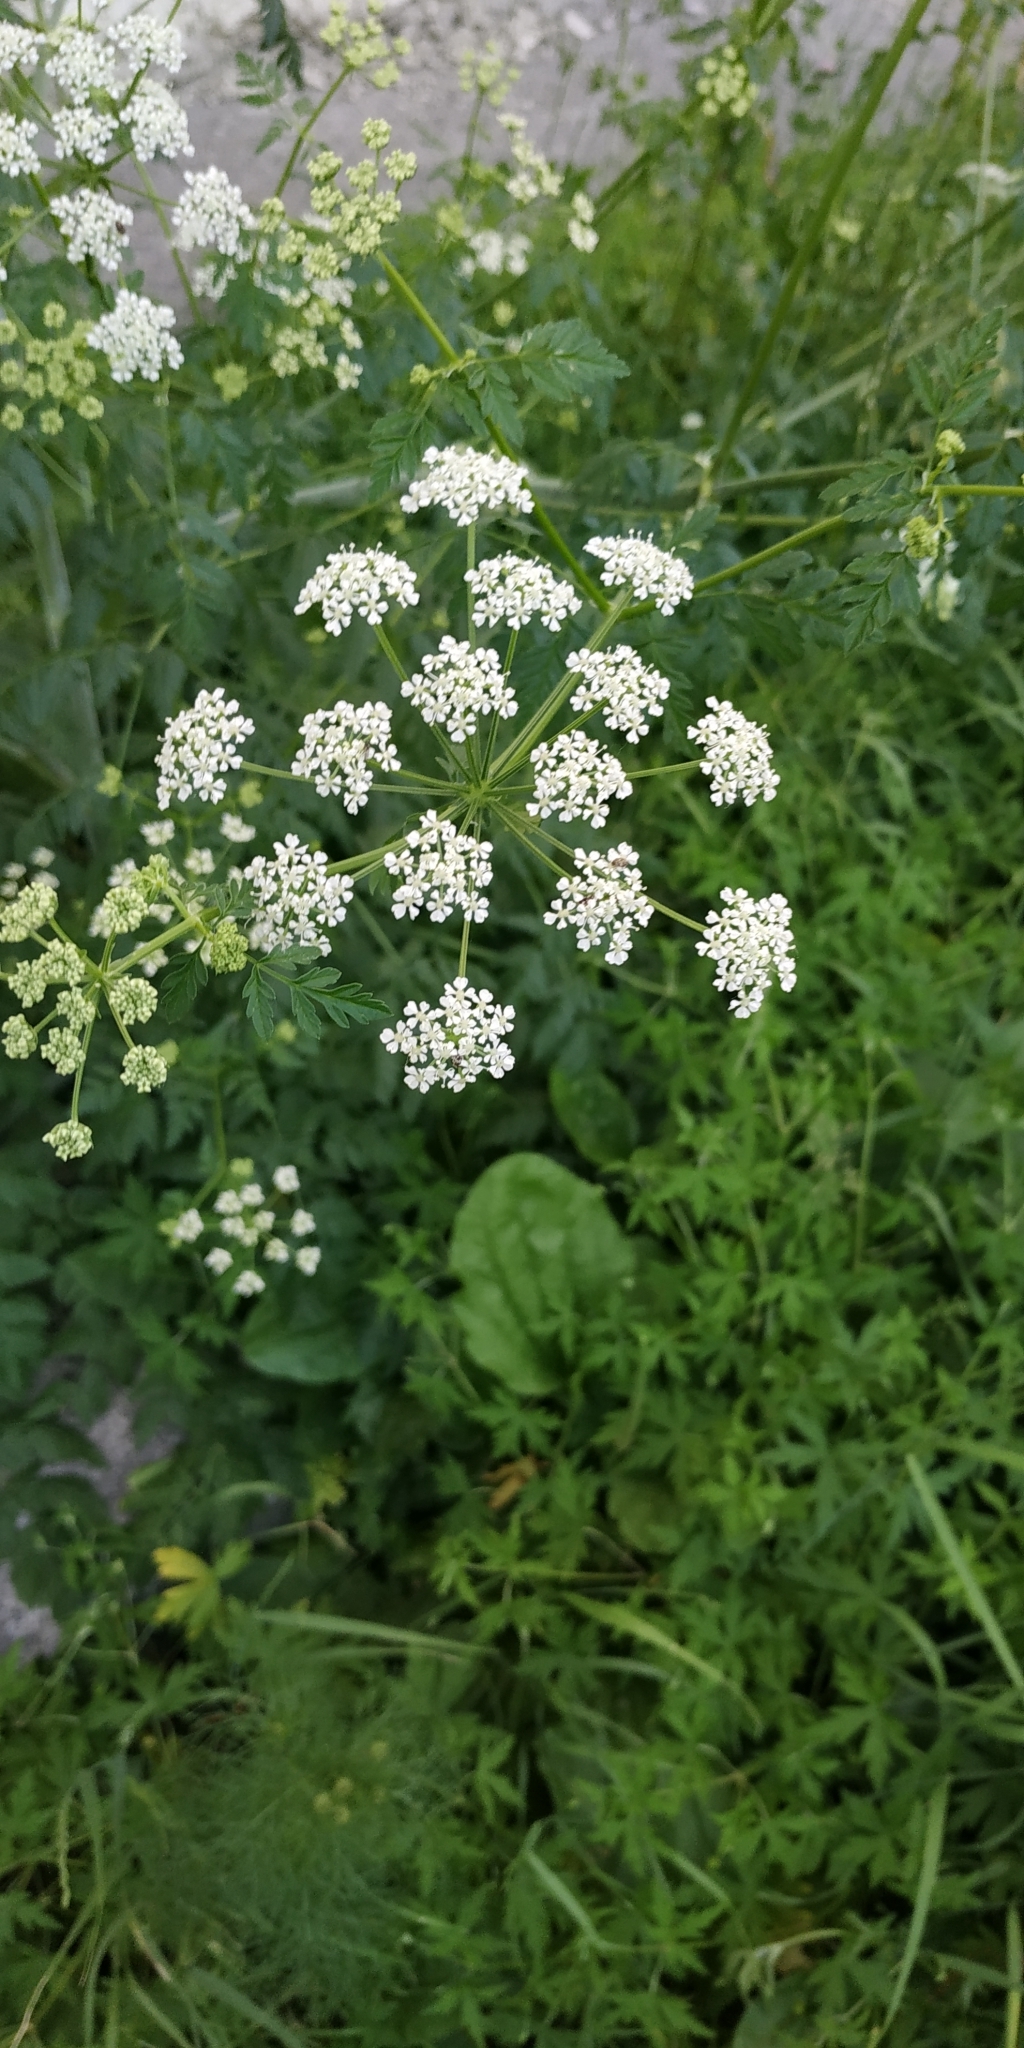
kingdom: Plantae
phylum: Tracheophyta
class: Magnoliopsida
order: Apiales
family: Apiaceae
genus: Conium
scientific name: Conium maculatum
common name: Hemlock
